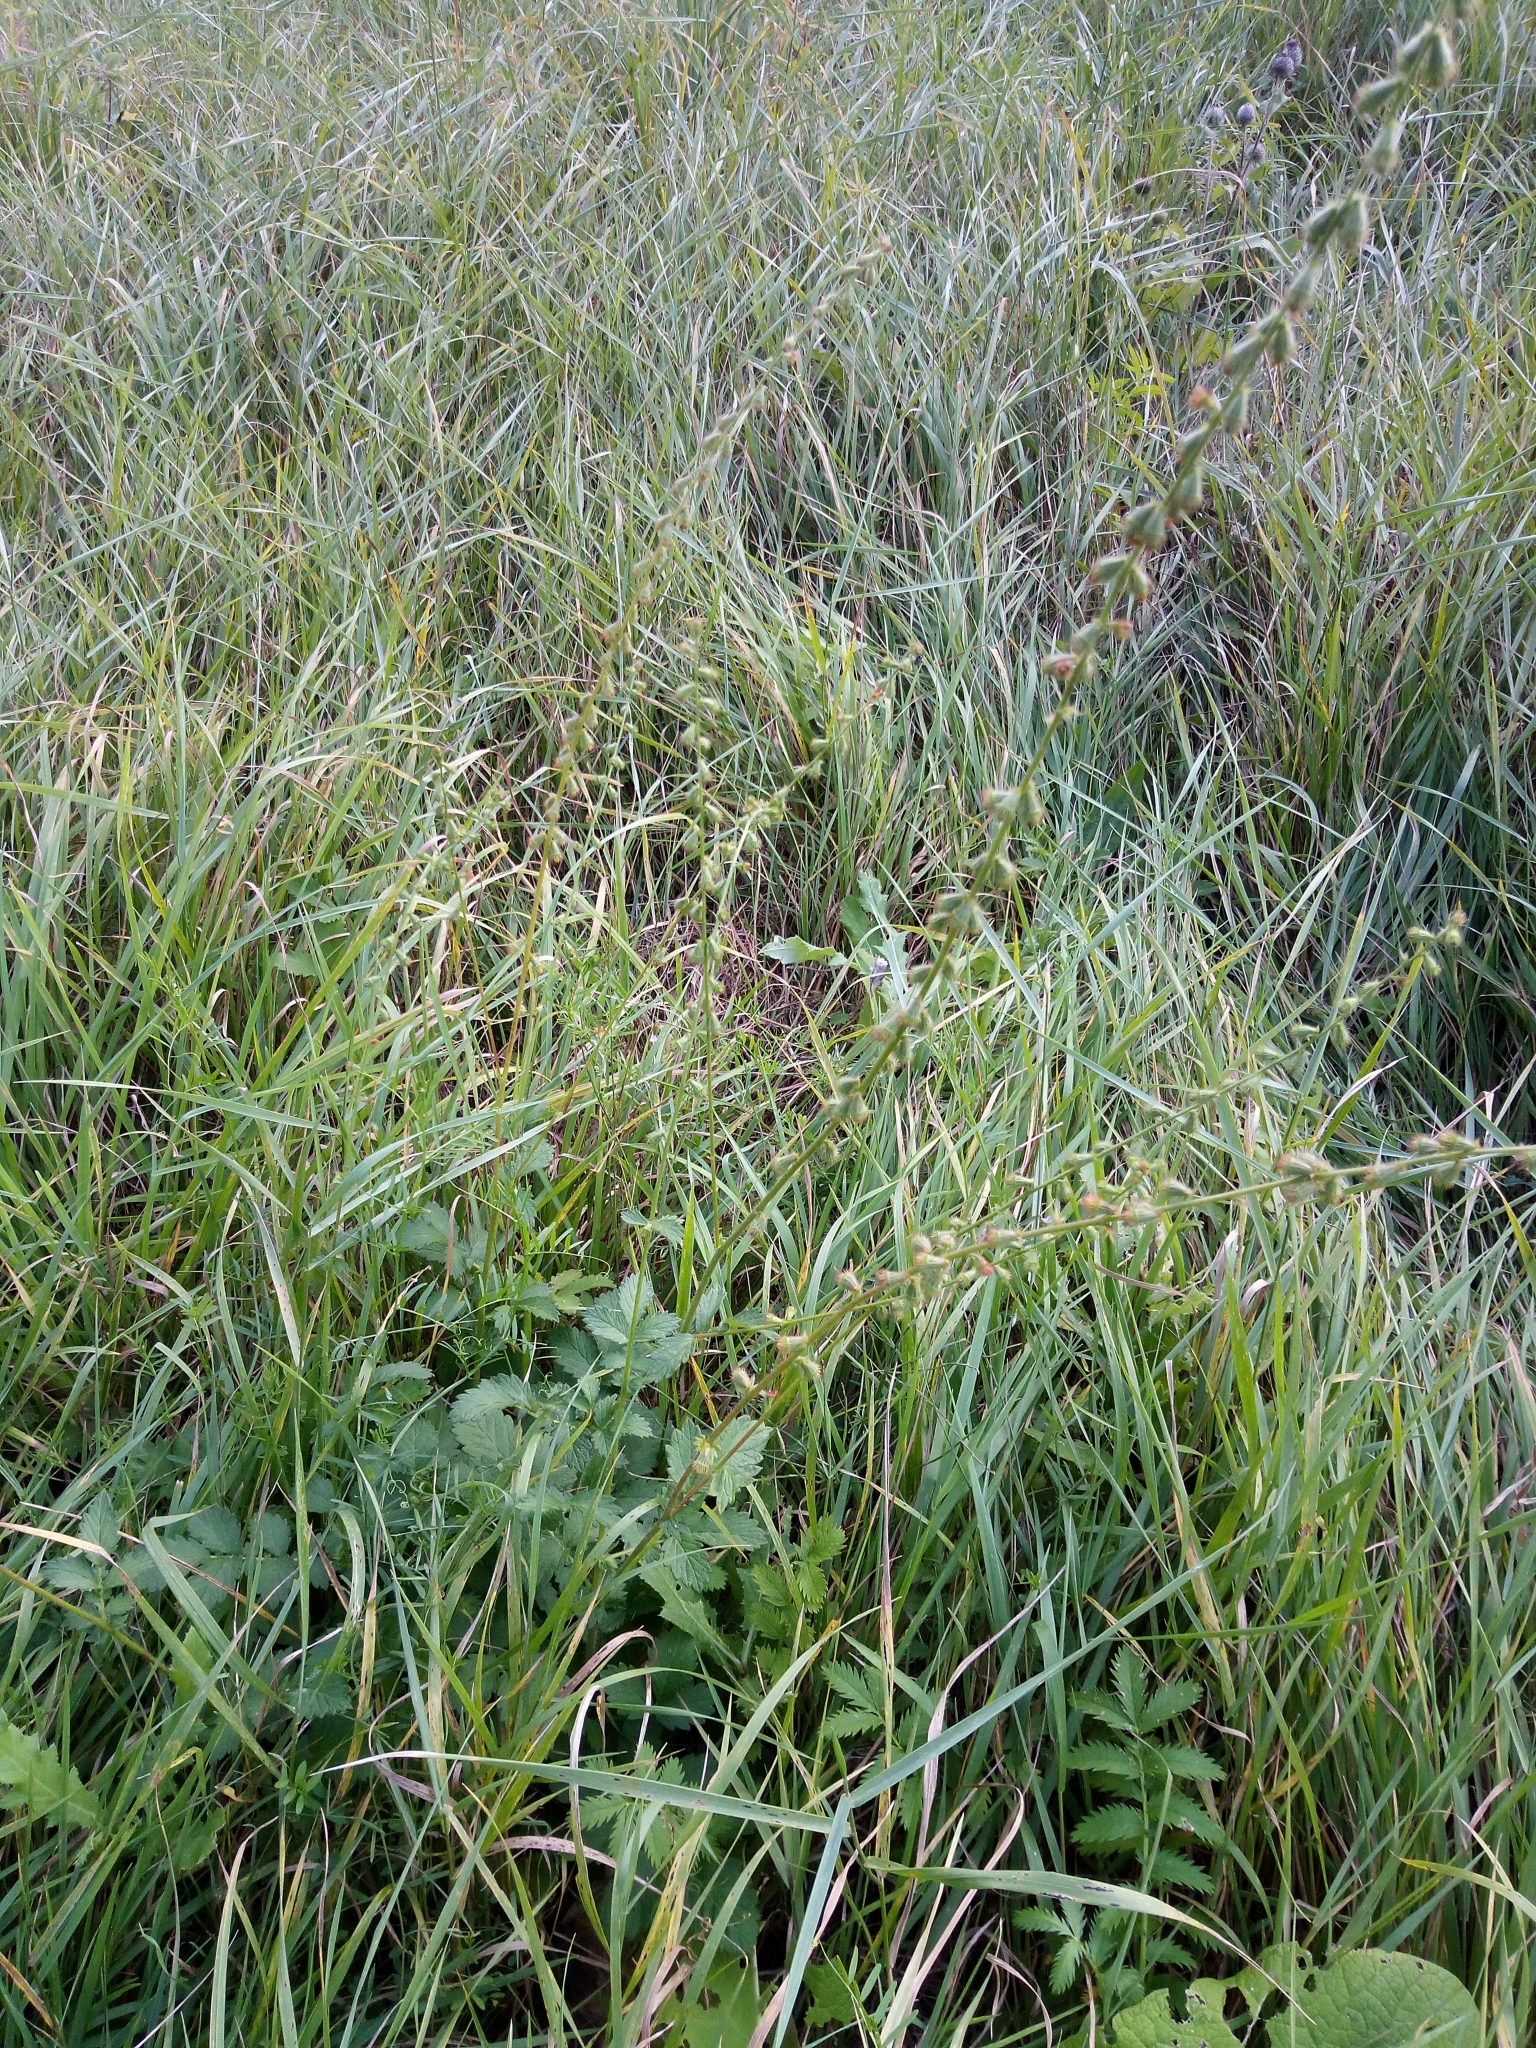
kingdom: Plantae
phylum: Tracheophyta
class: Magnoliopsida
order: Rosales
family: Rosaceae
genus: Agrimonia
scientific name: Agrimonia eupatoria
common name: Agrimony
